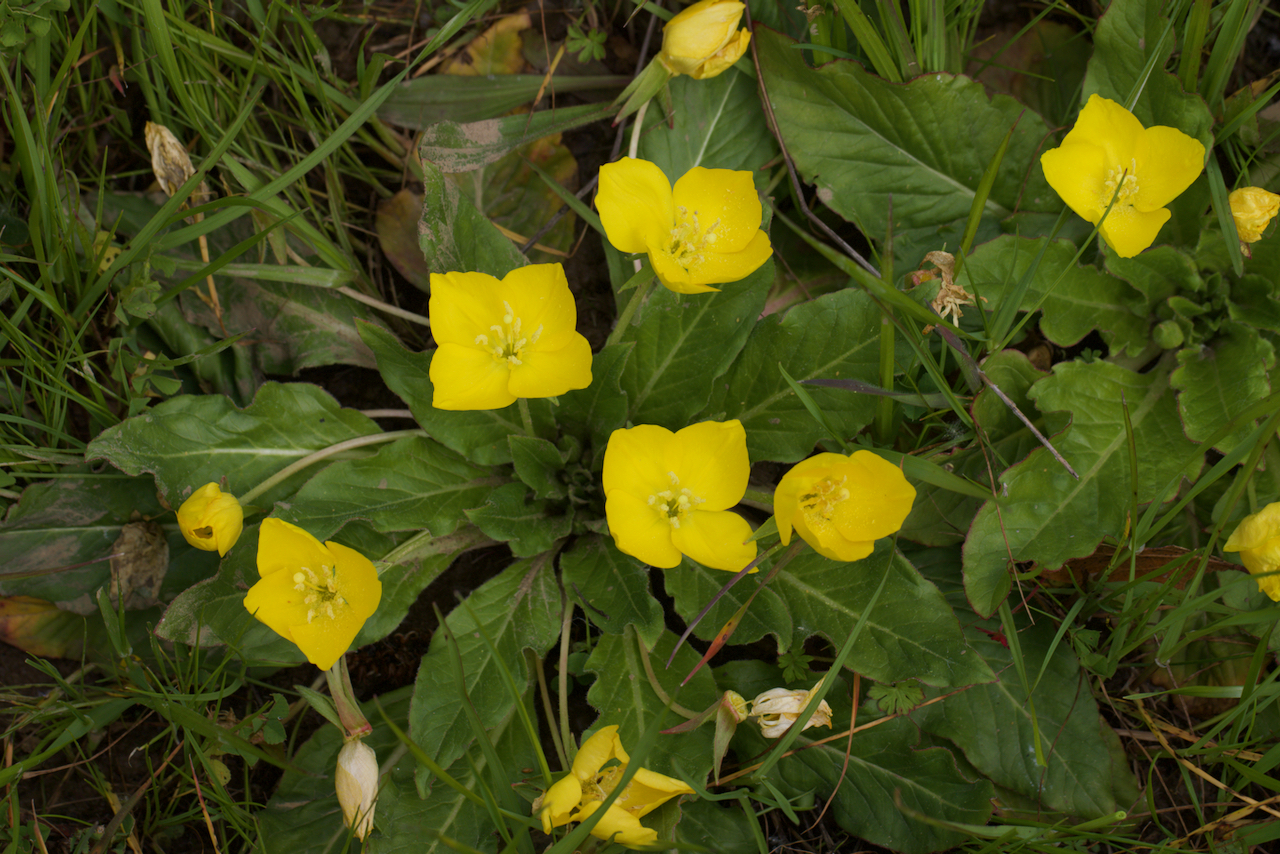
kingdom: Plantae
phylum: Tracheophyta
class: Magnoliopsida
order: Myrtales
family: Onagraceae
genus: Taraxia
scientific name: Taraxia ovata
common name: Goldeneggs
